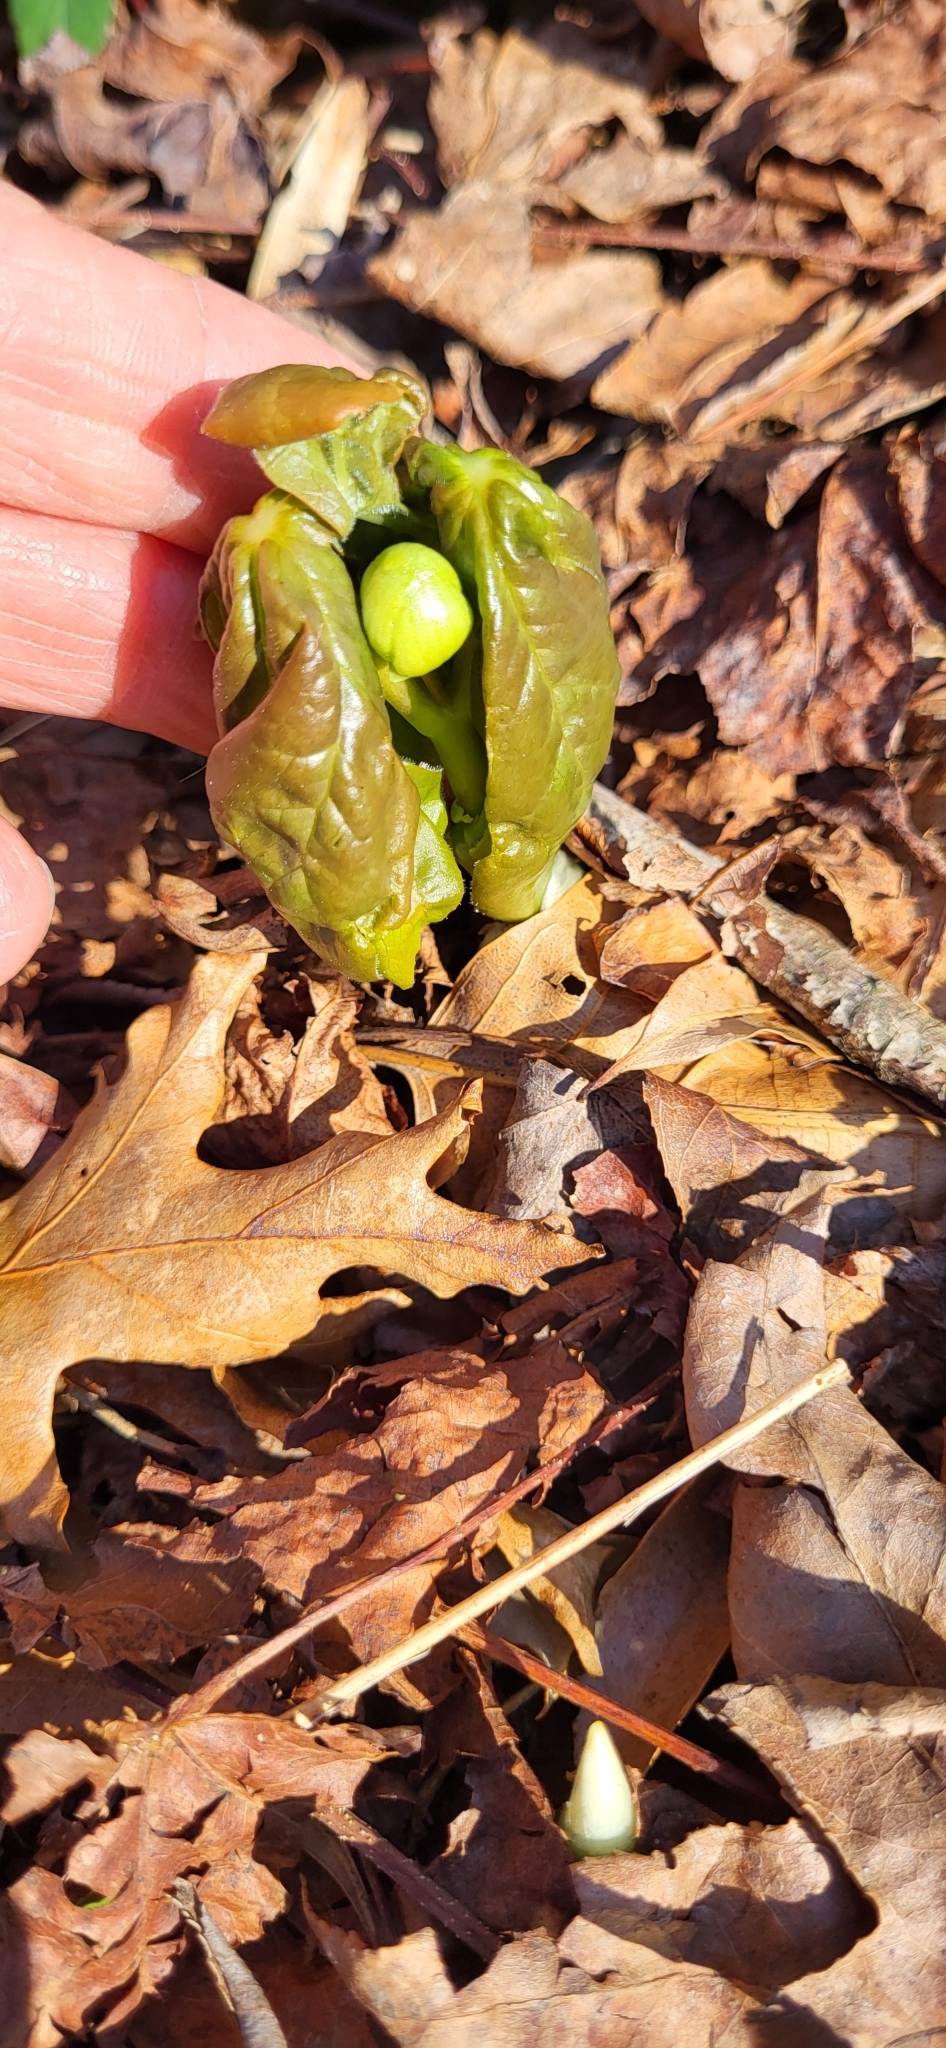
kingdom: Plantae
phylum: Tracheophyta
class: Magnoliopsida
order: Ranunculales
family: Berberidaceae
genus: Podophyllum
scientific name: Podophyllum peltatum
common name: Wild mandrake
